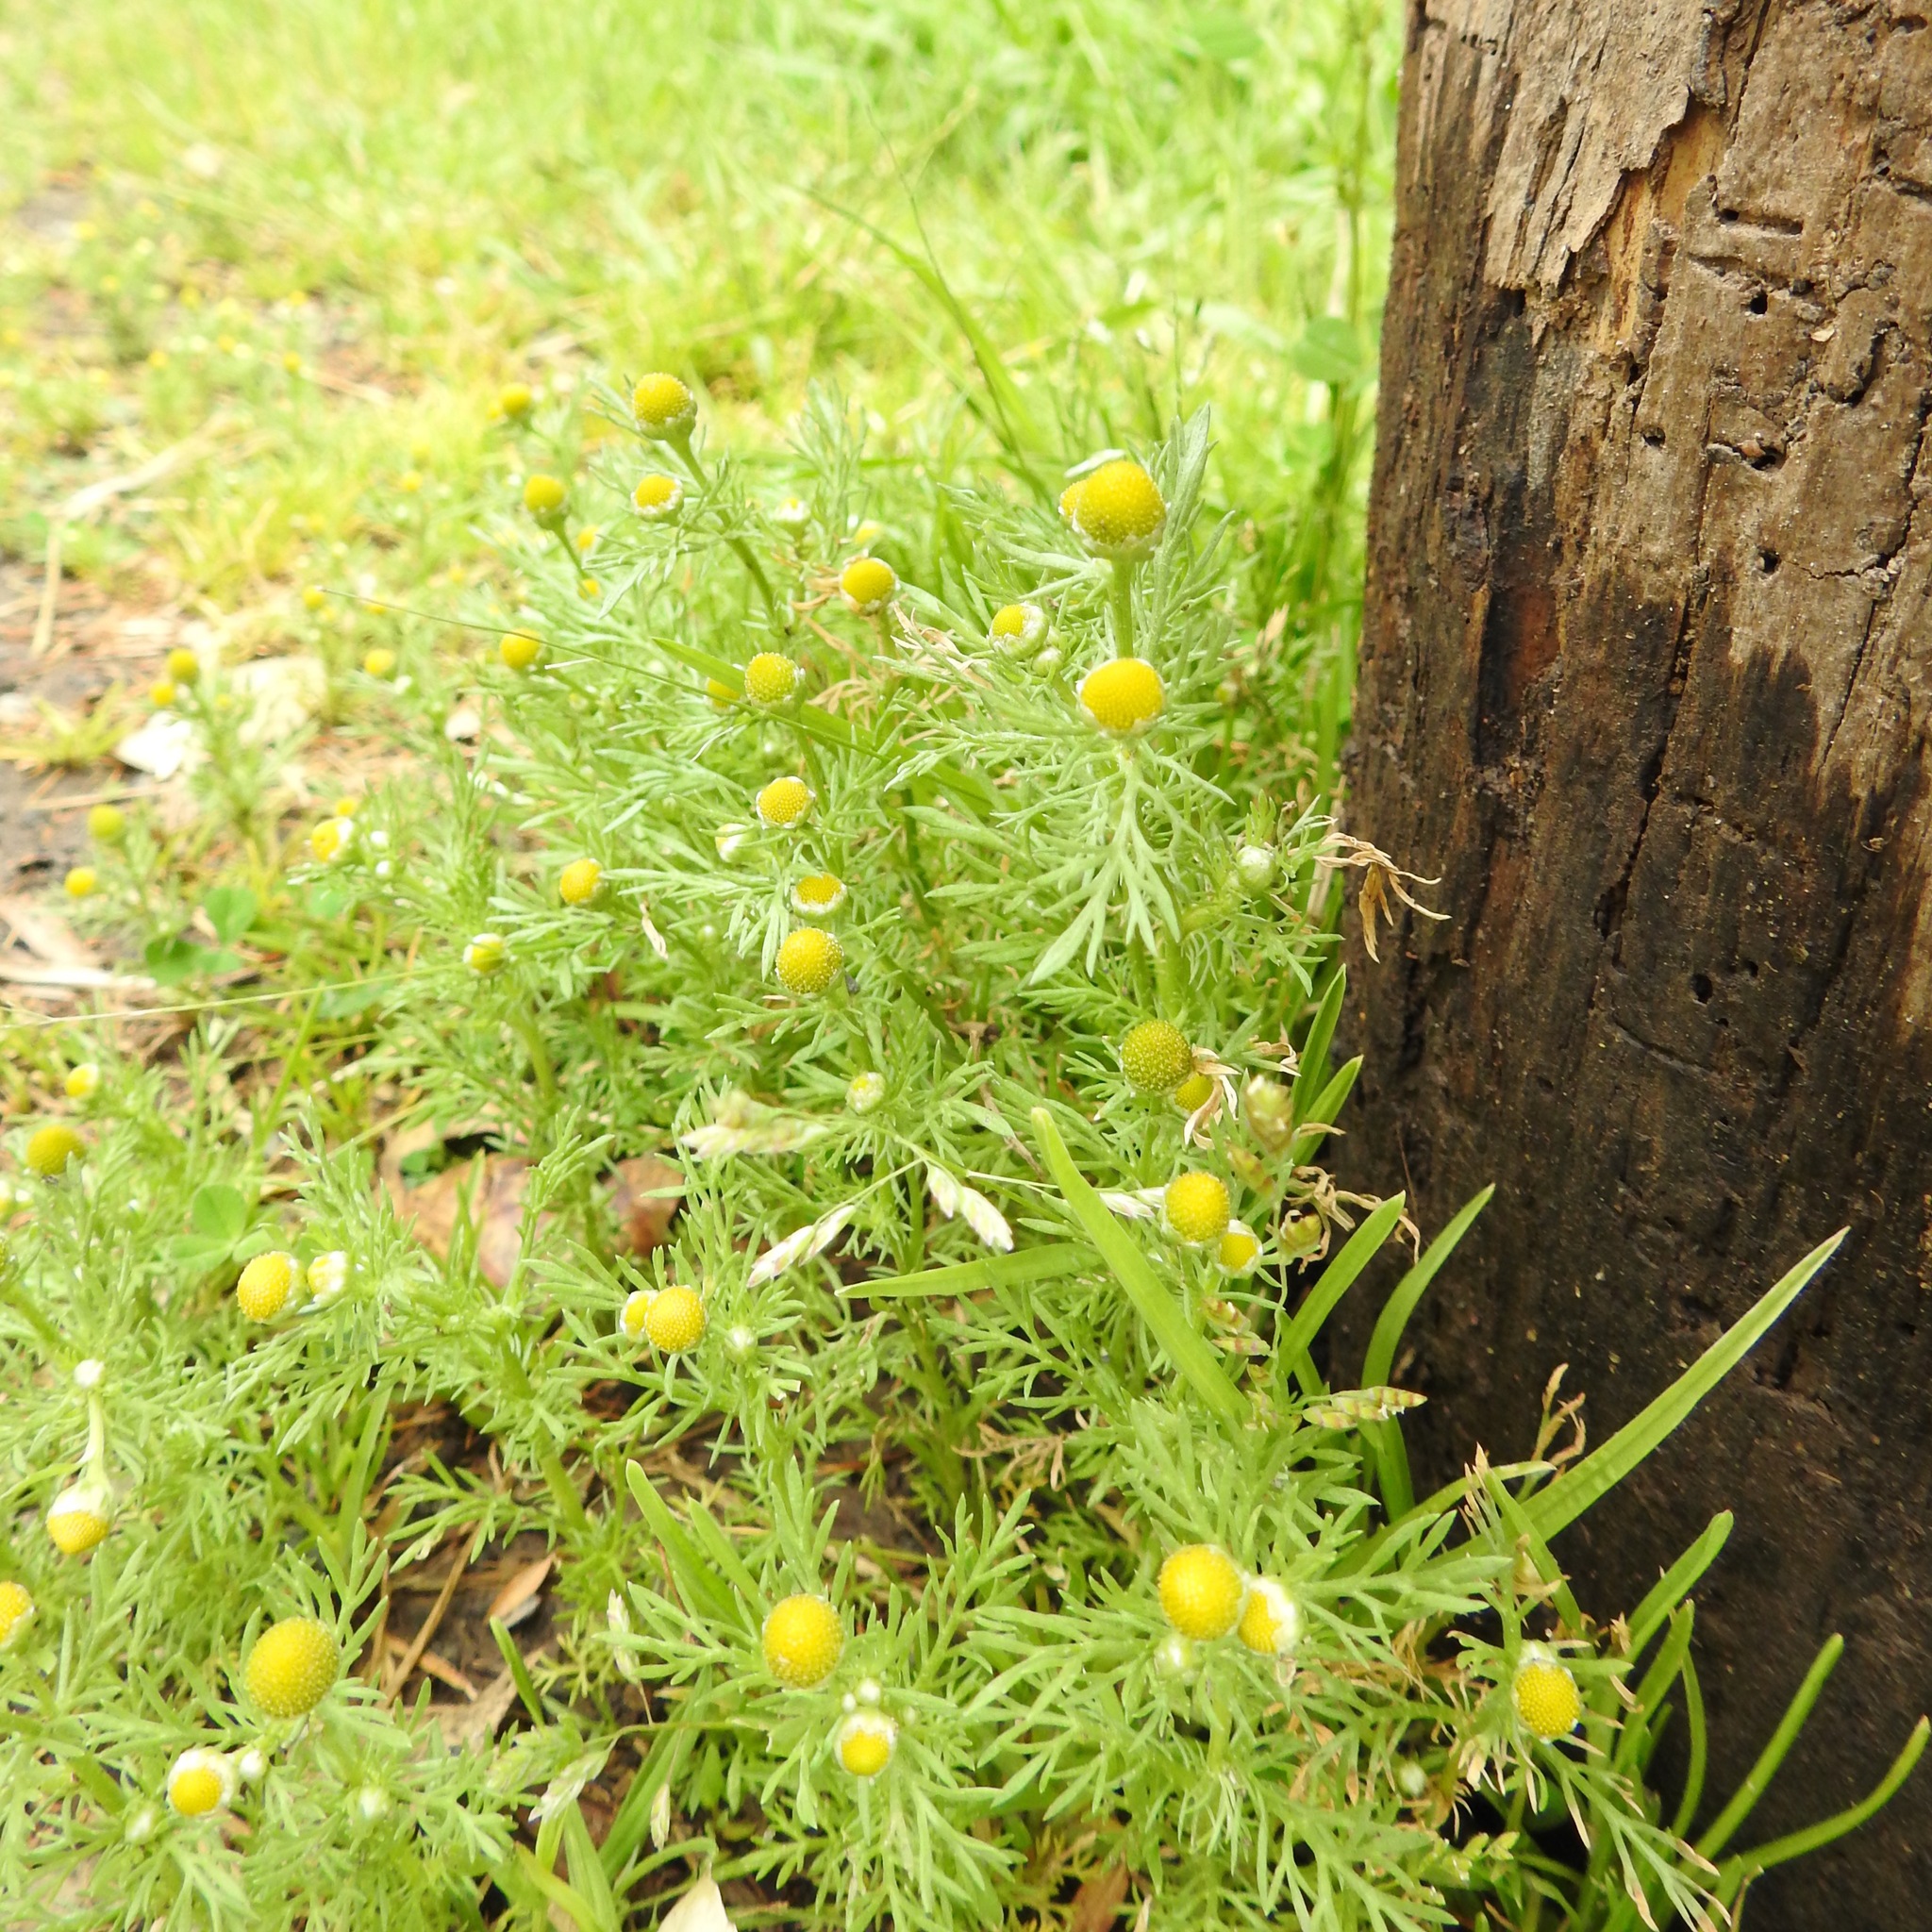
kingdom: Plantae
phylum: Tracheophyta
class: Magnoliopsida
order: Asterales
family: Asteraceae
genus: Matricaria
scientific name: Matricaria discoidea
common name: Disc mayweed
